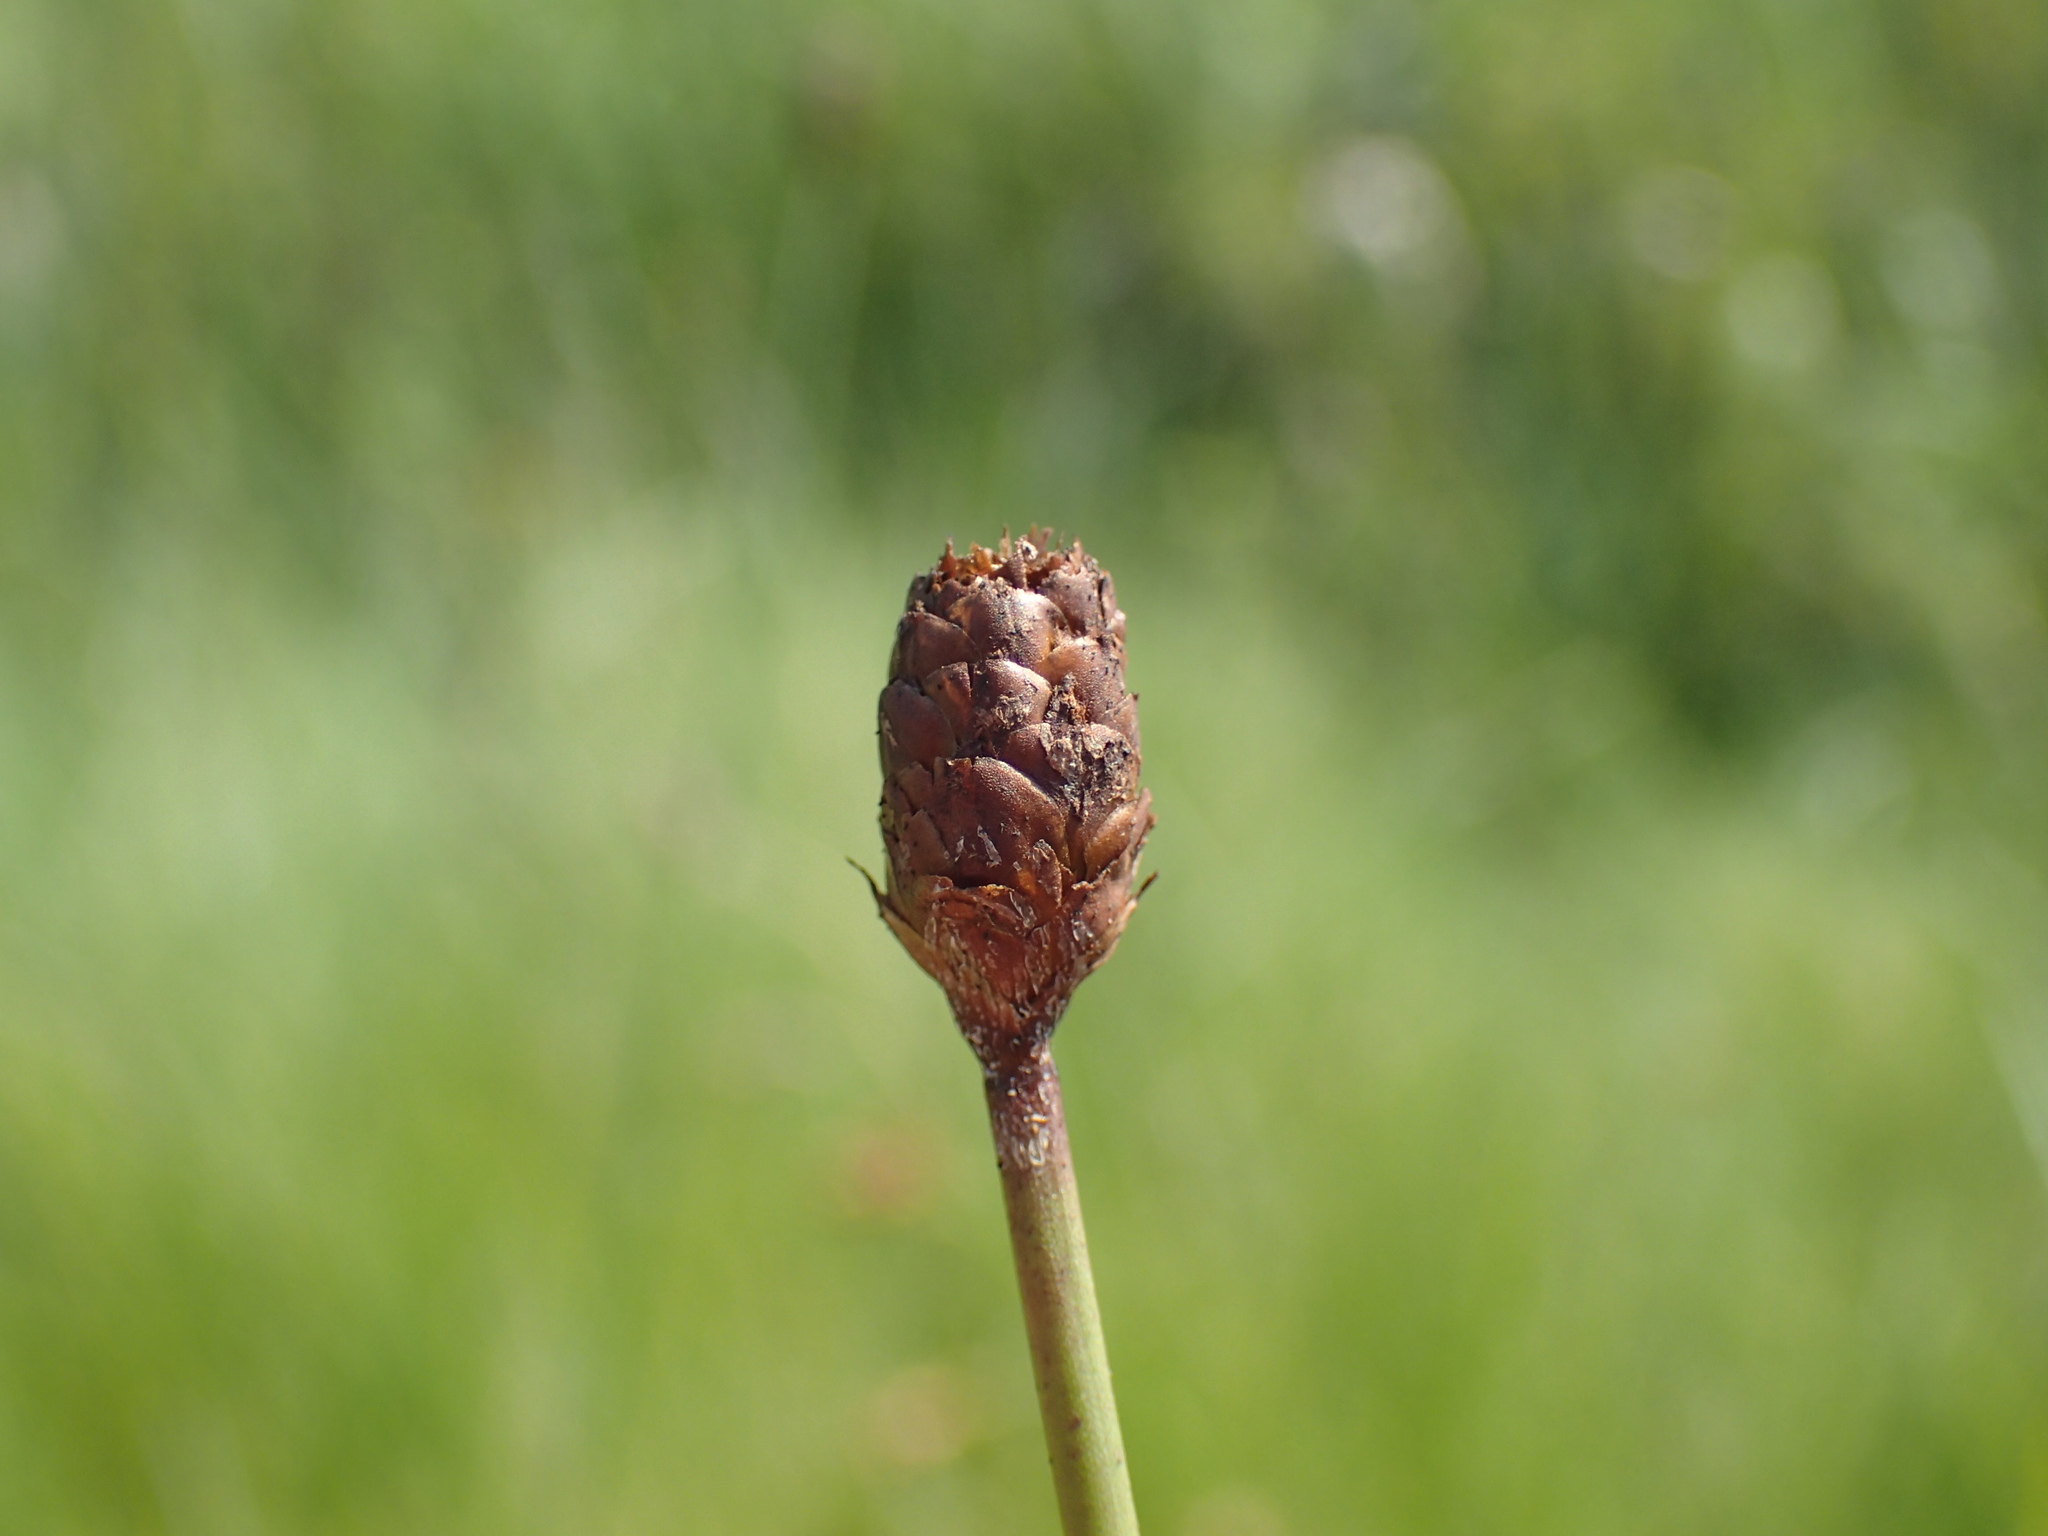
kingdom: Plantae
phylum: Tracheophyta
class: Liliopsida
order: Poales
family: Xyridaceae
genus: Xyris
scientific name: Xyris capensis
